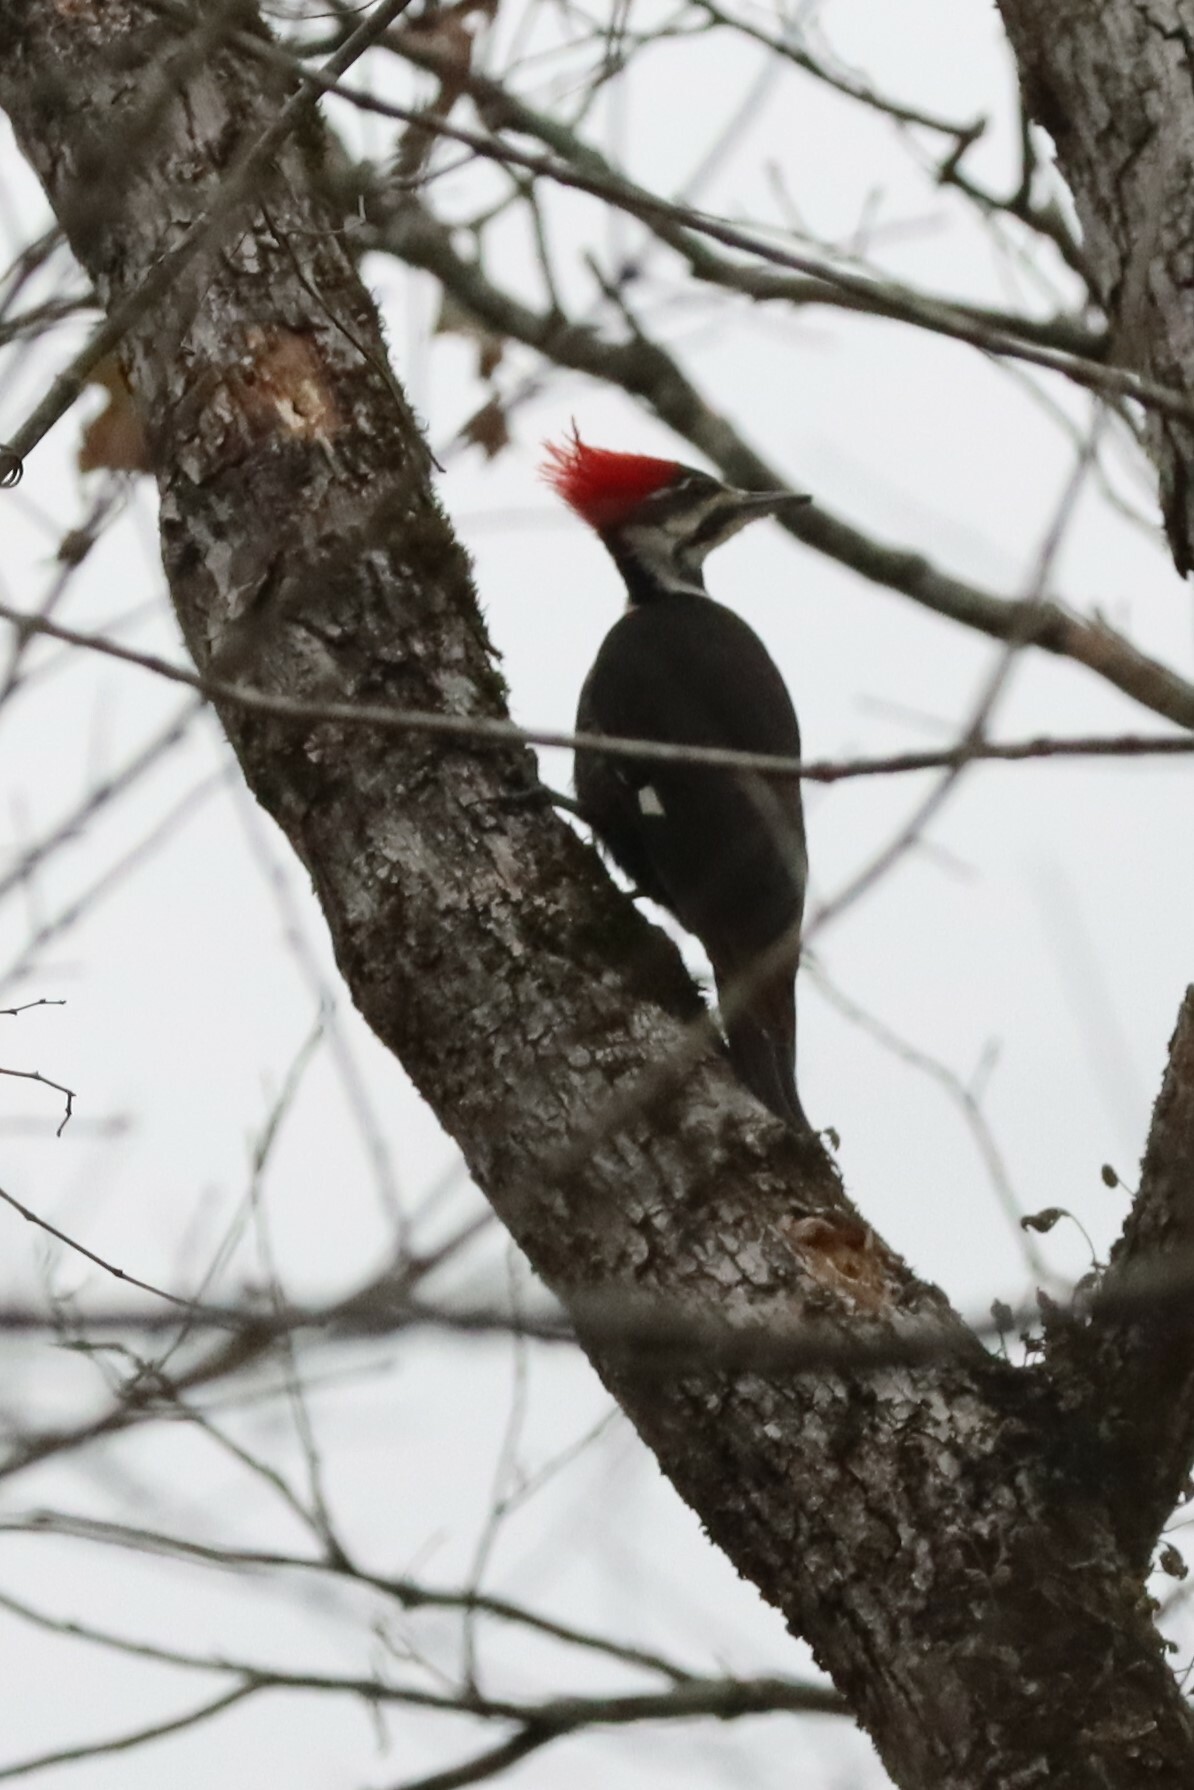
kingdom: Animalia
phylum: Chordata
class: Aves
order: Piciformes
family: Picidae
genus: Dryocopus
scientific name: Dryocopus pileatus
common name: Pileated woodpecker
